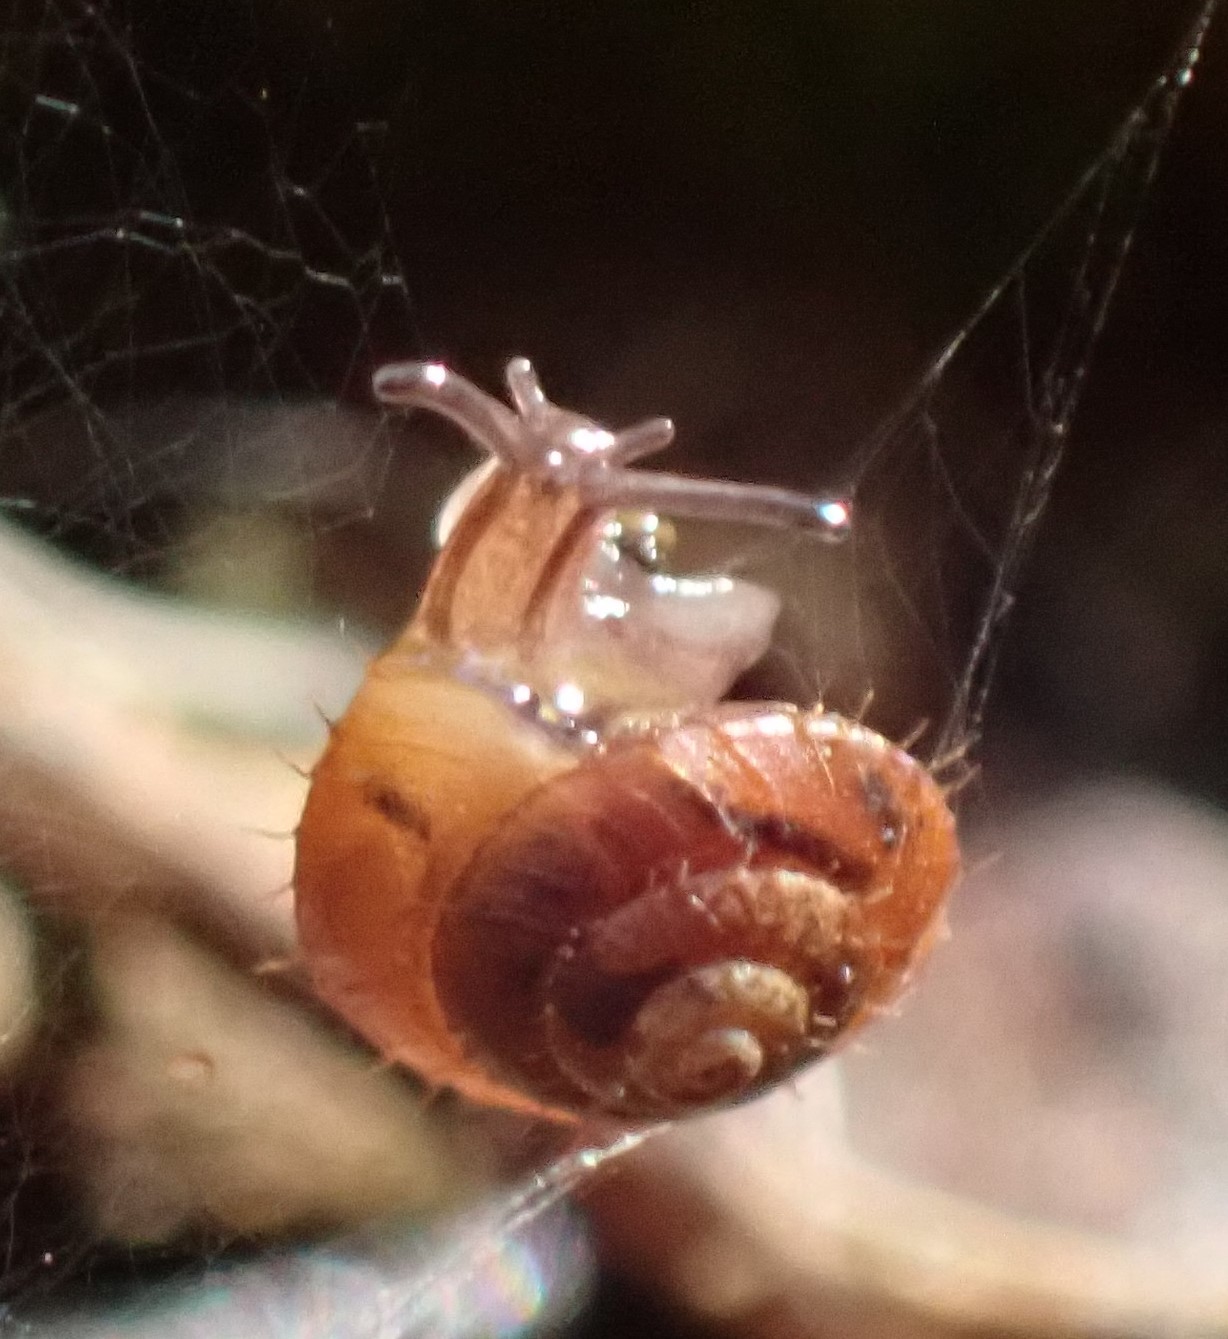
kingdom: Animalia
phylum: Mollusca
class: Gastropoda
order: Stylommatophora
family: Punctidae
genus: Magilaoma
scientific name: Magilaoma penolensis
